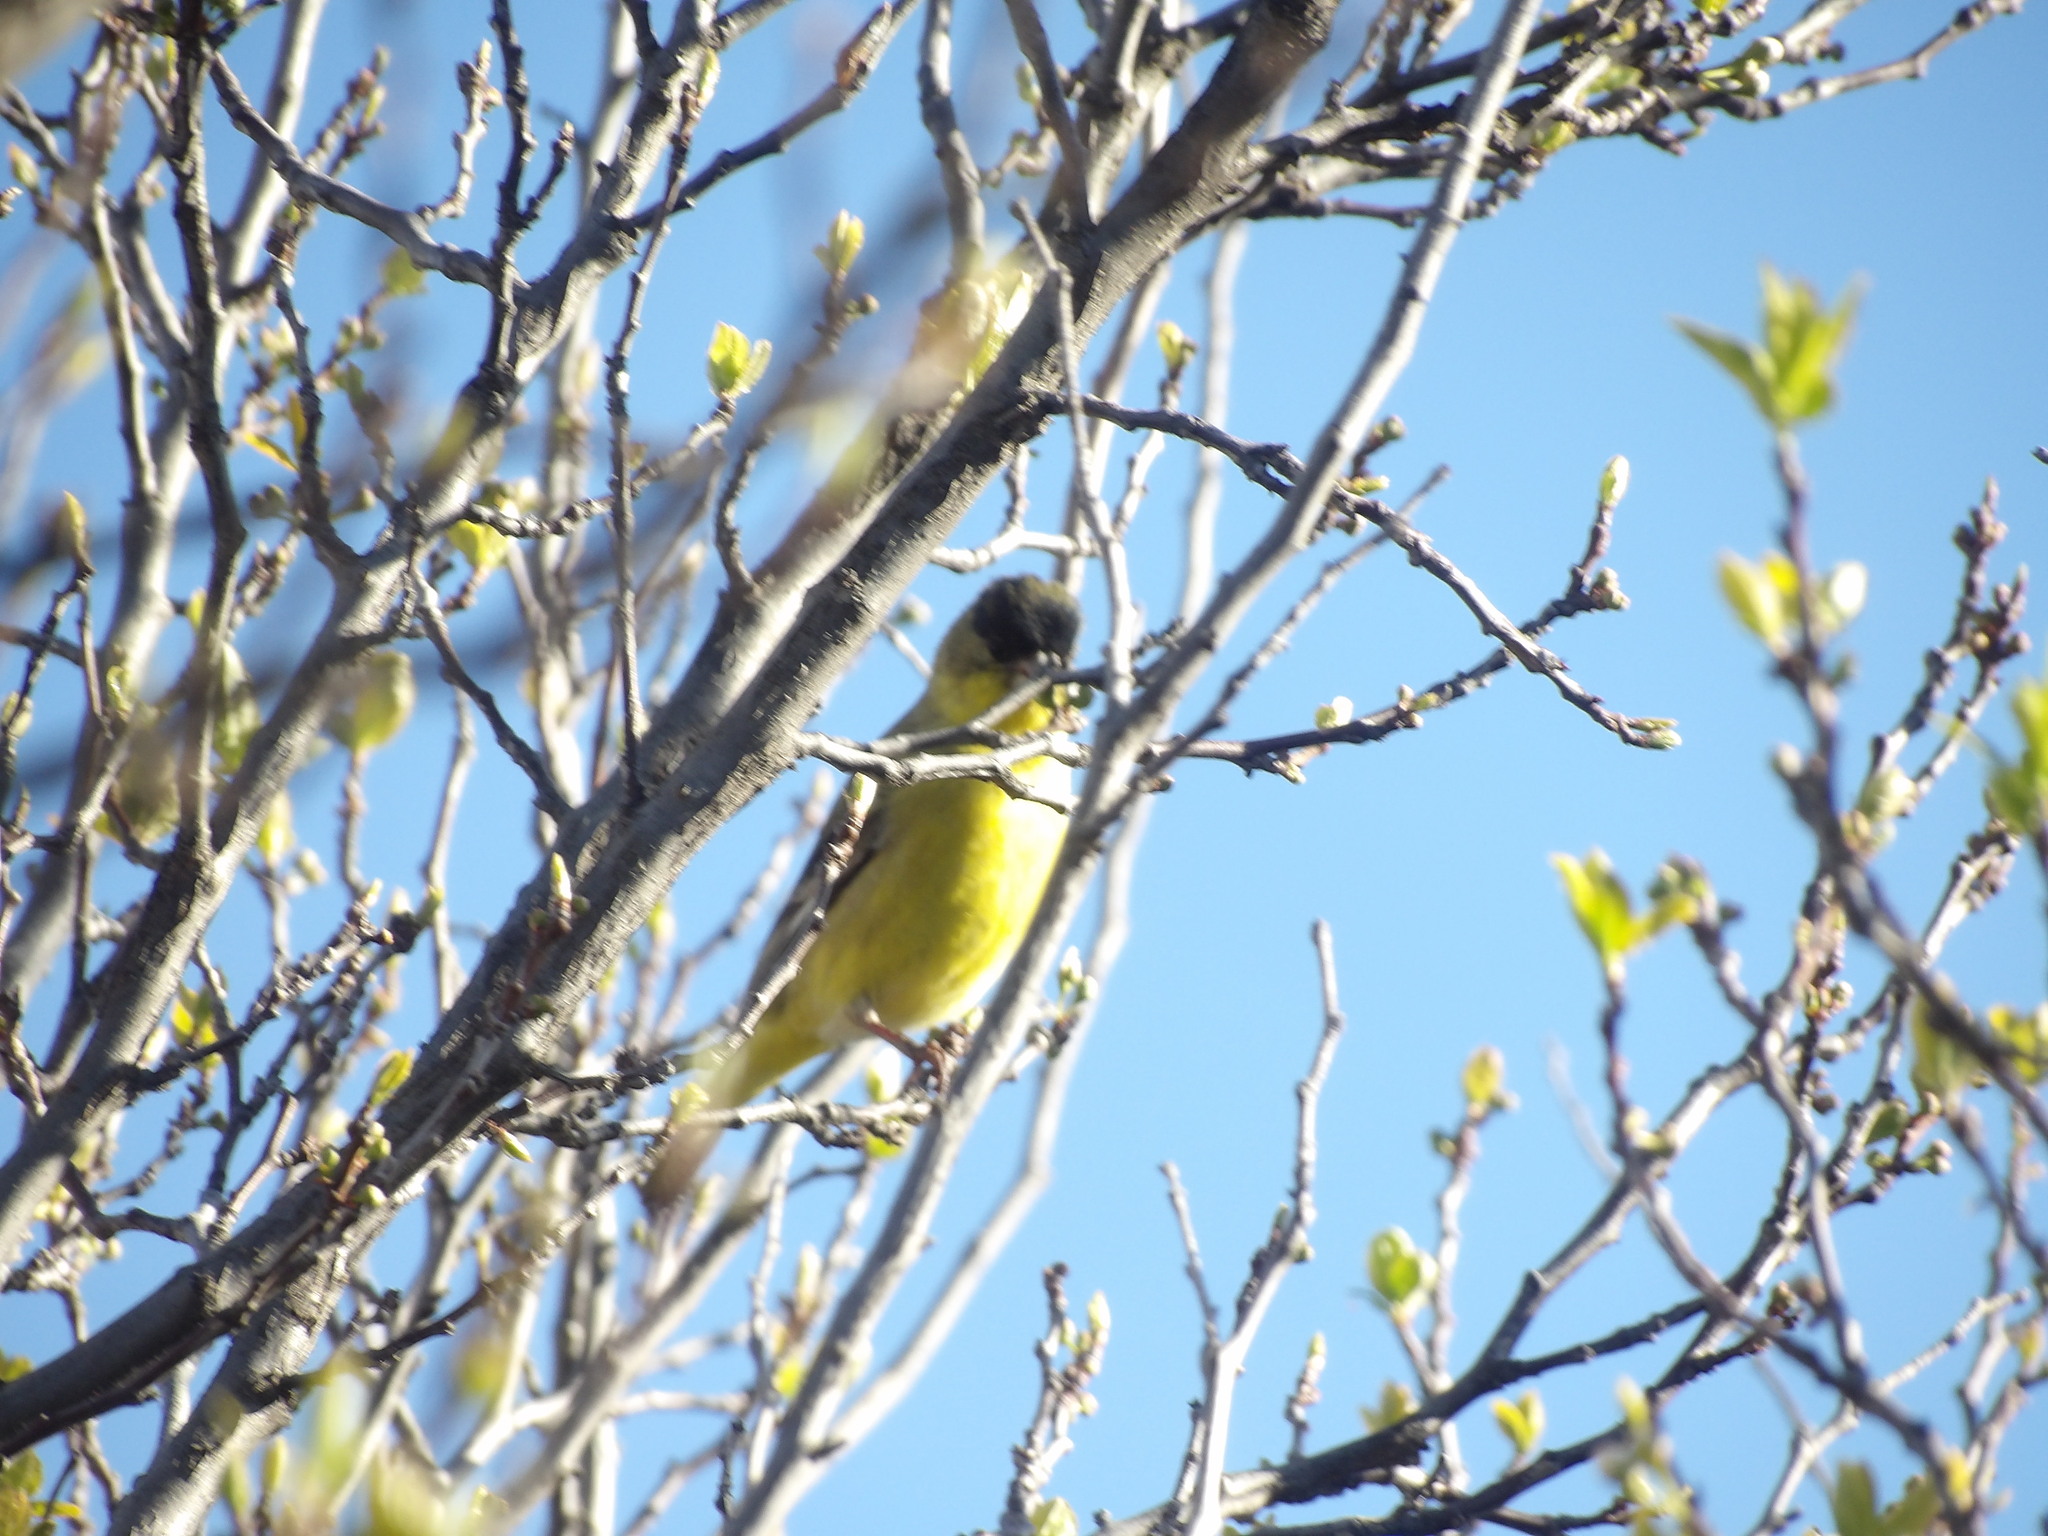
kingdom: Animalia
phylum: Chordata
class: Aves
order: Passeriformes
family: Fringillidae
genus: Spinus
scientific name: Spinus psaltria
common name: Lesser goldfinch
